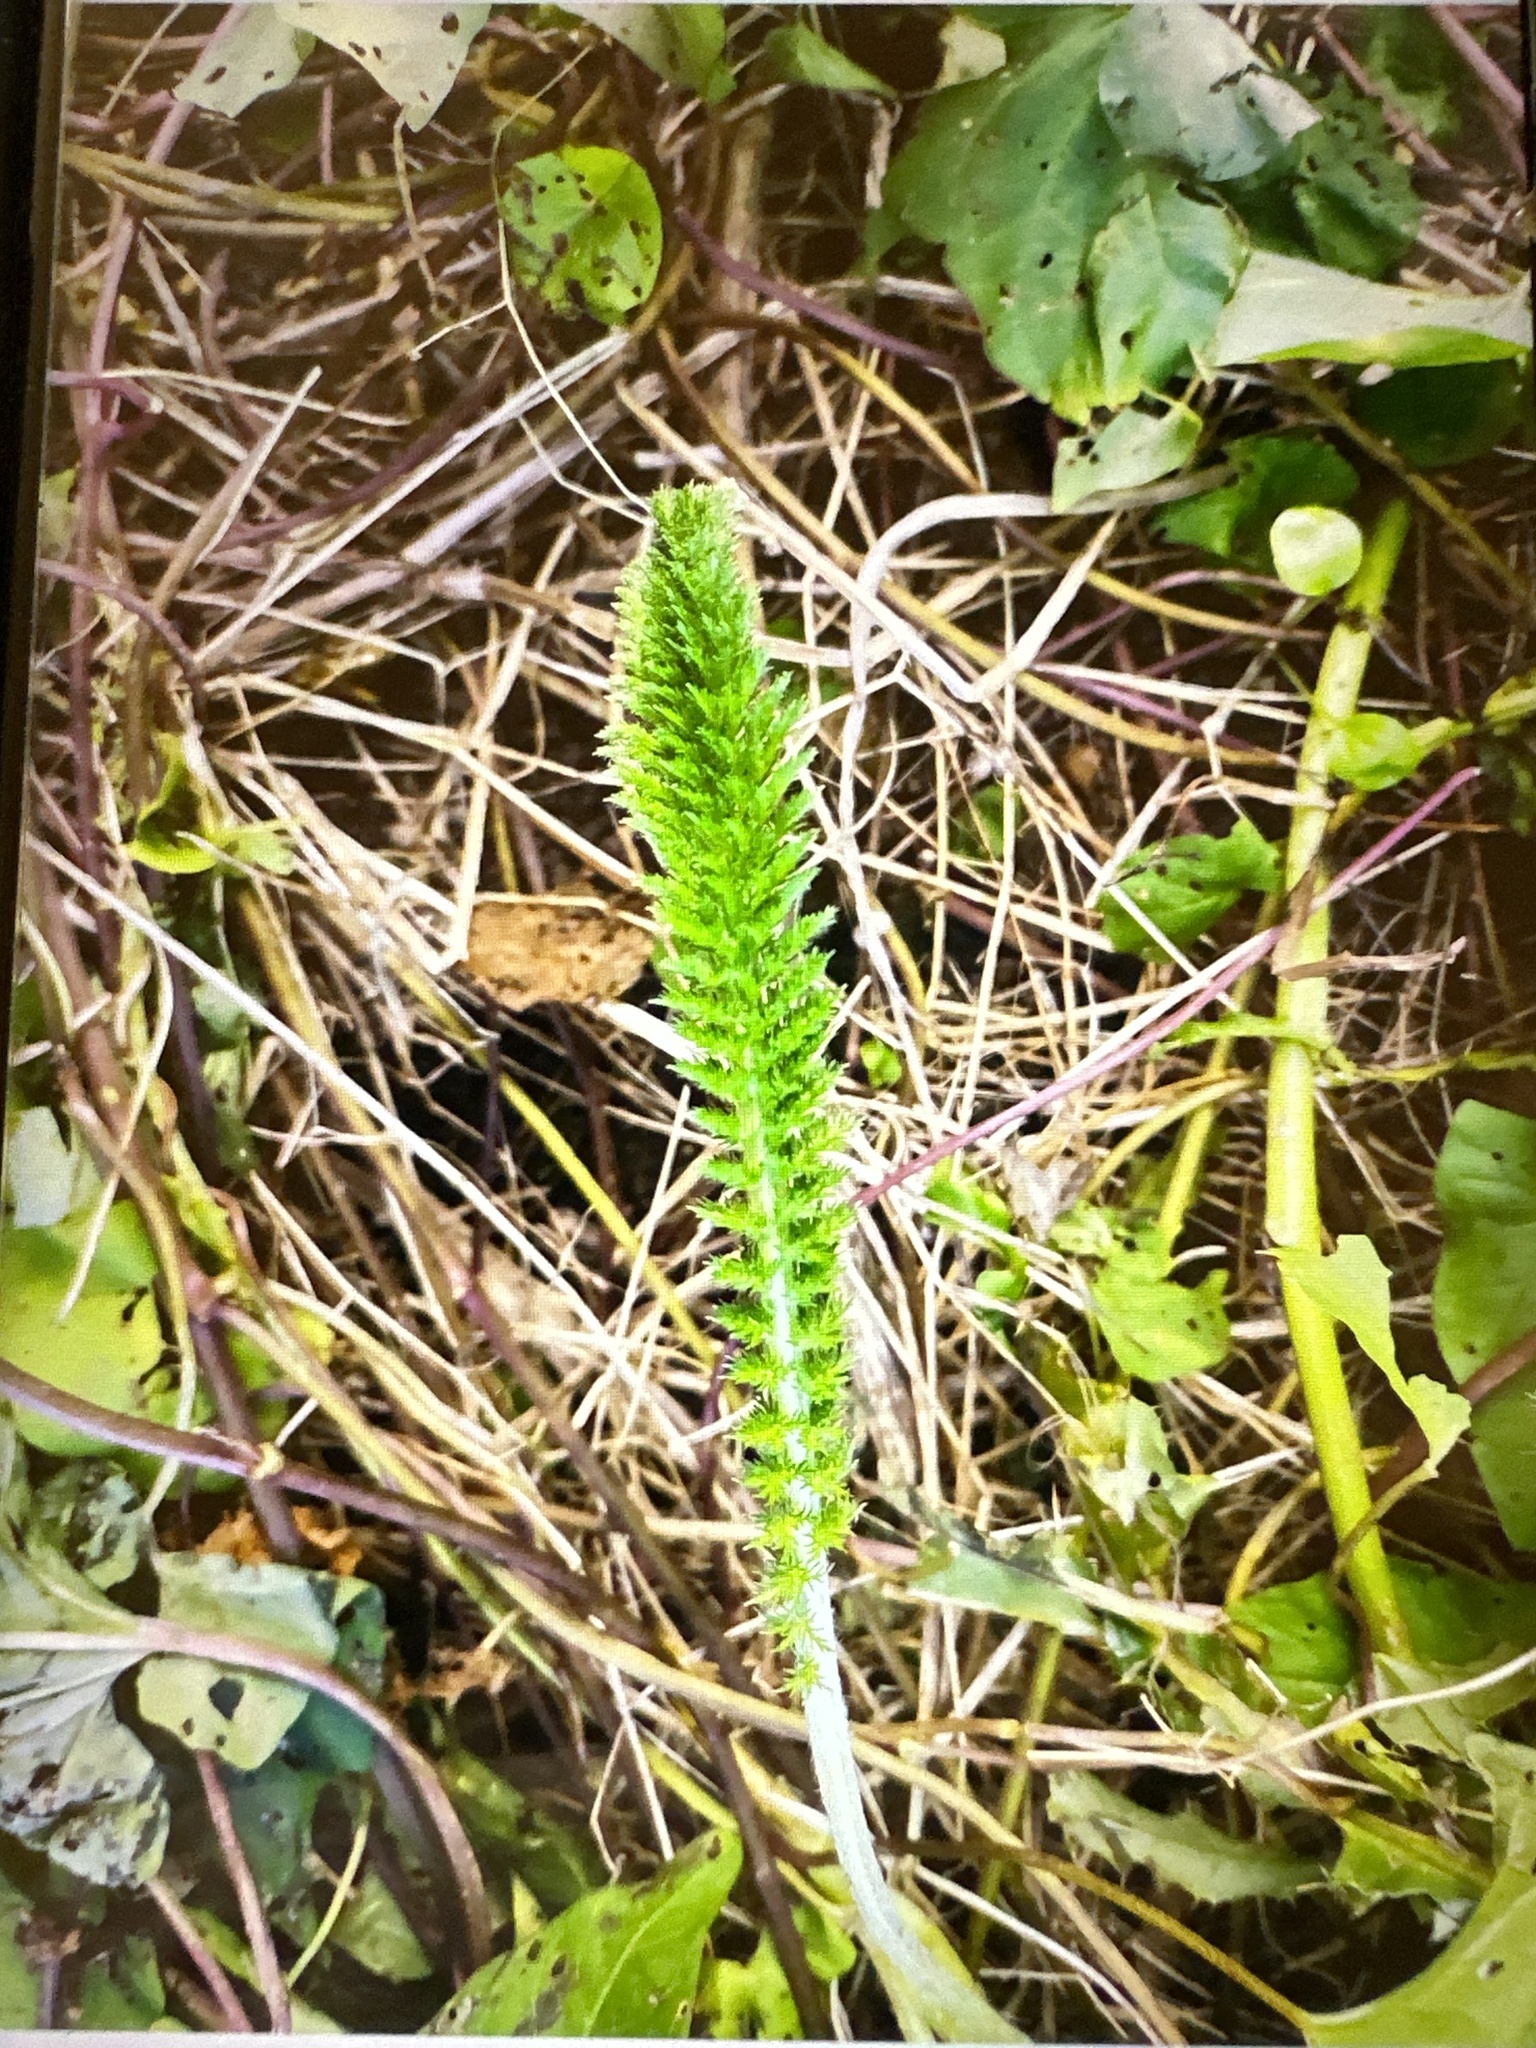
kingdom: Plantae
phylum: Tracheophyta
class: Magnoliopsida
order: Asterales
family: Asteraceae
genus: Achillea
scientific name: Achillea millefolium
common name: Yarrow
